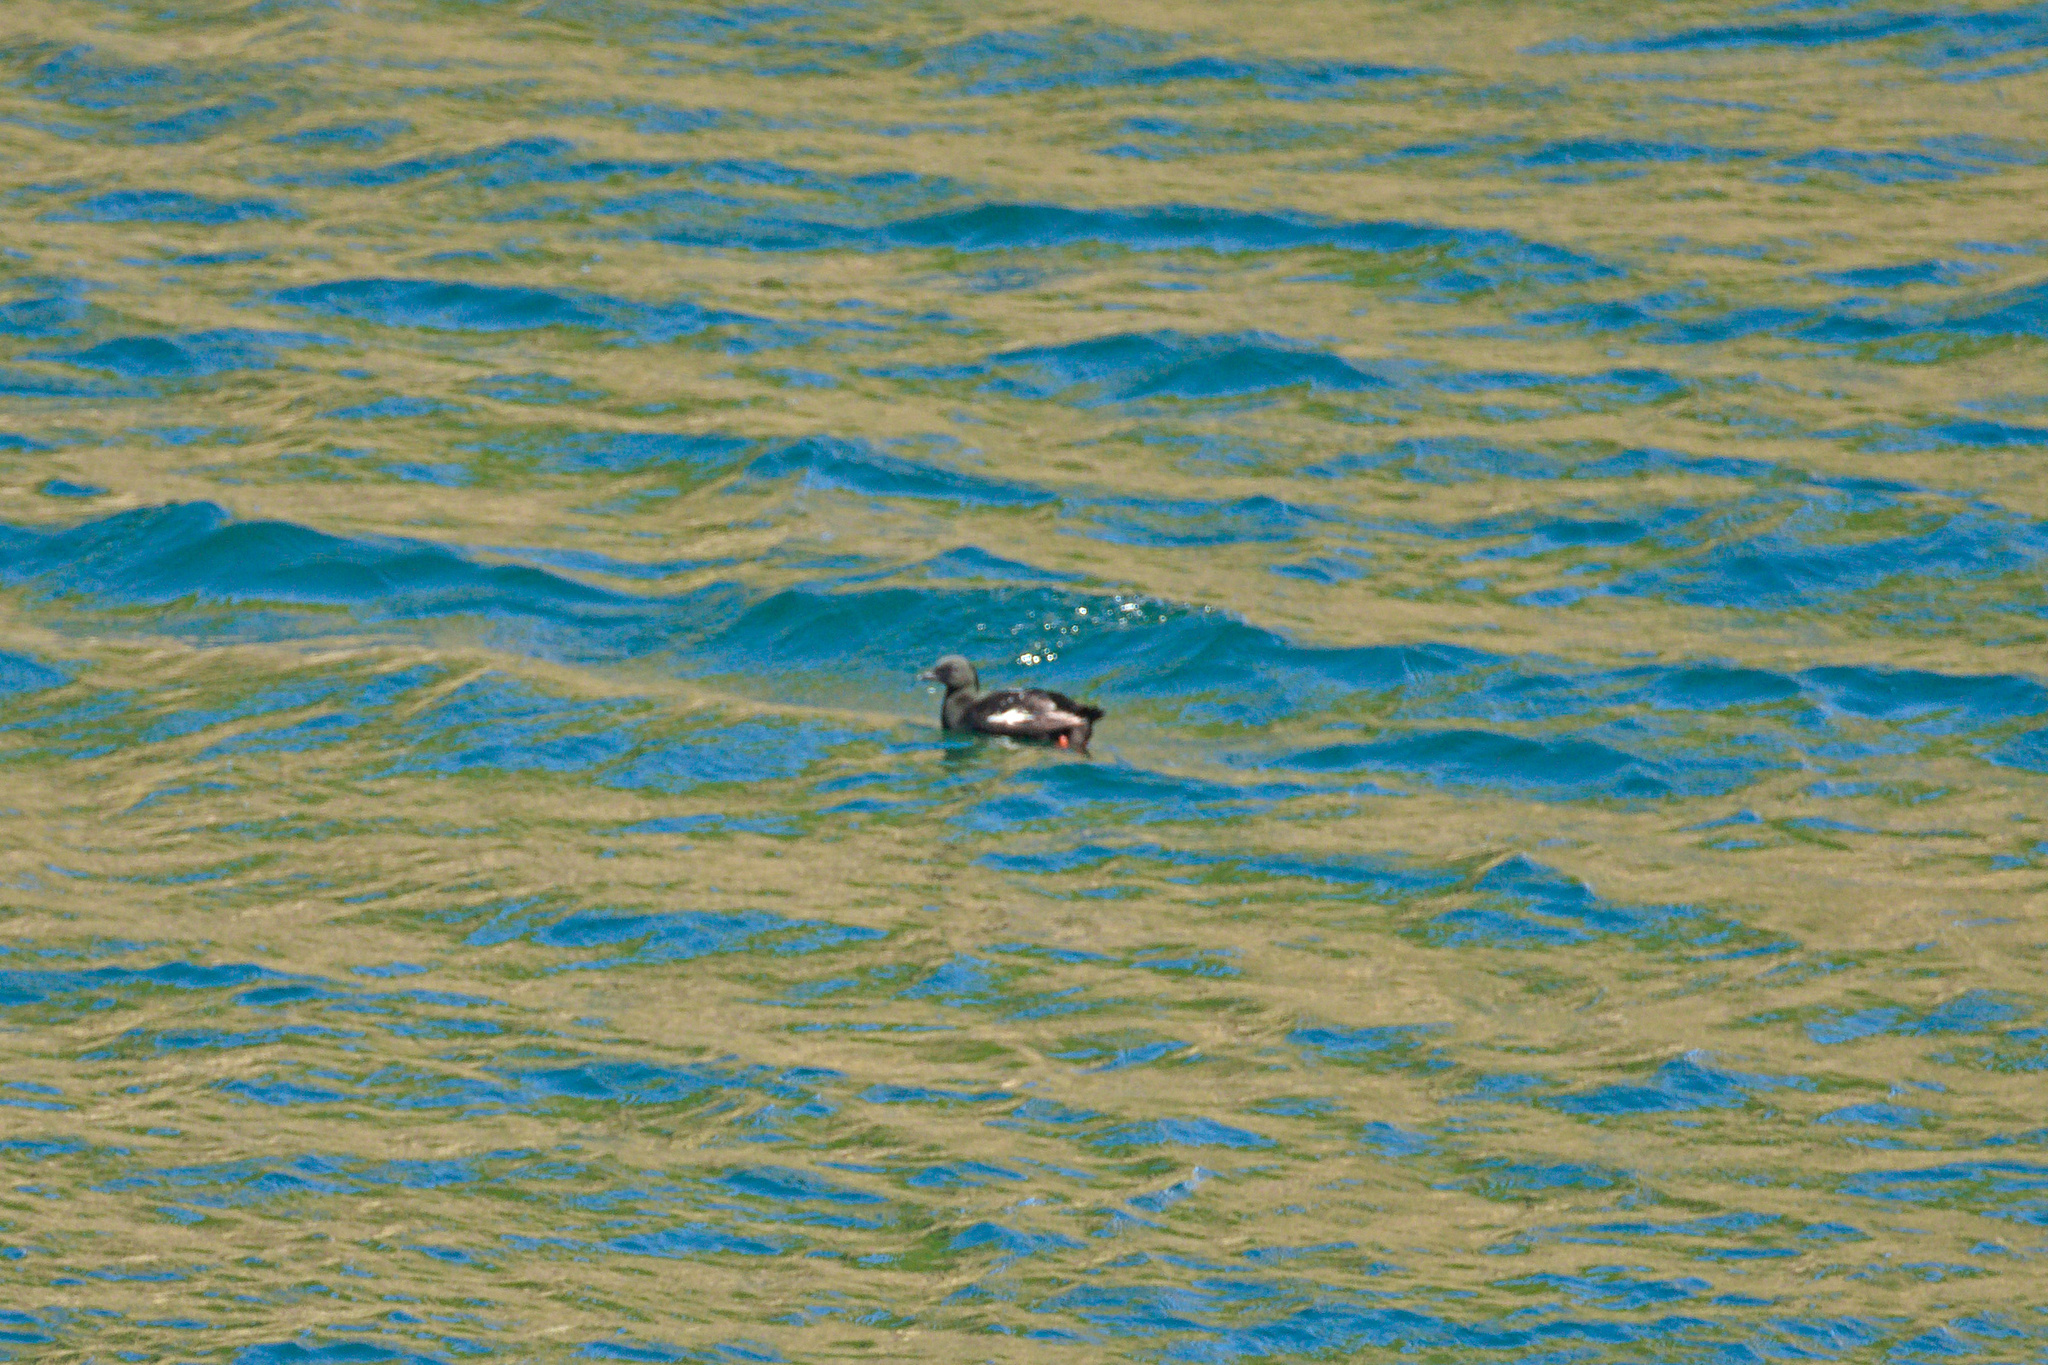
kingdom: Animalia
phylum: Chordata
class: Aves
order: Charadriiformes
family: Alcidae
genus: Cepphus
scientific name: Cepphus grylle
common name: Black guillemot
